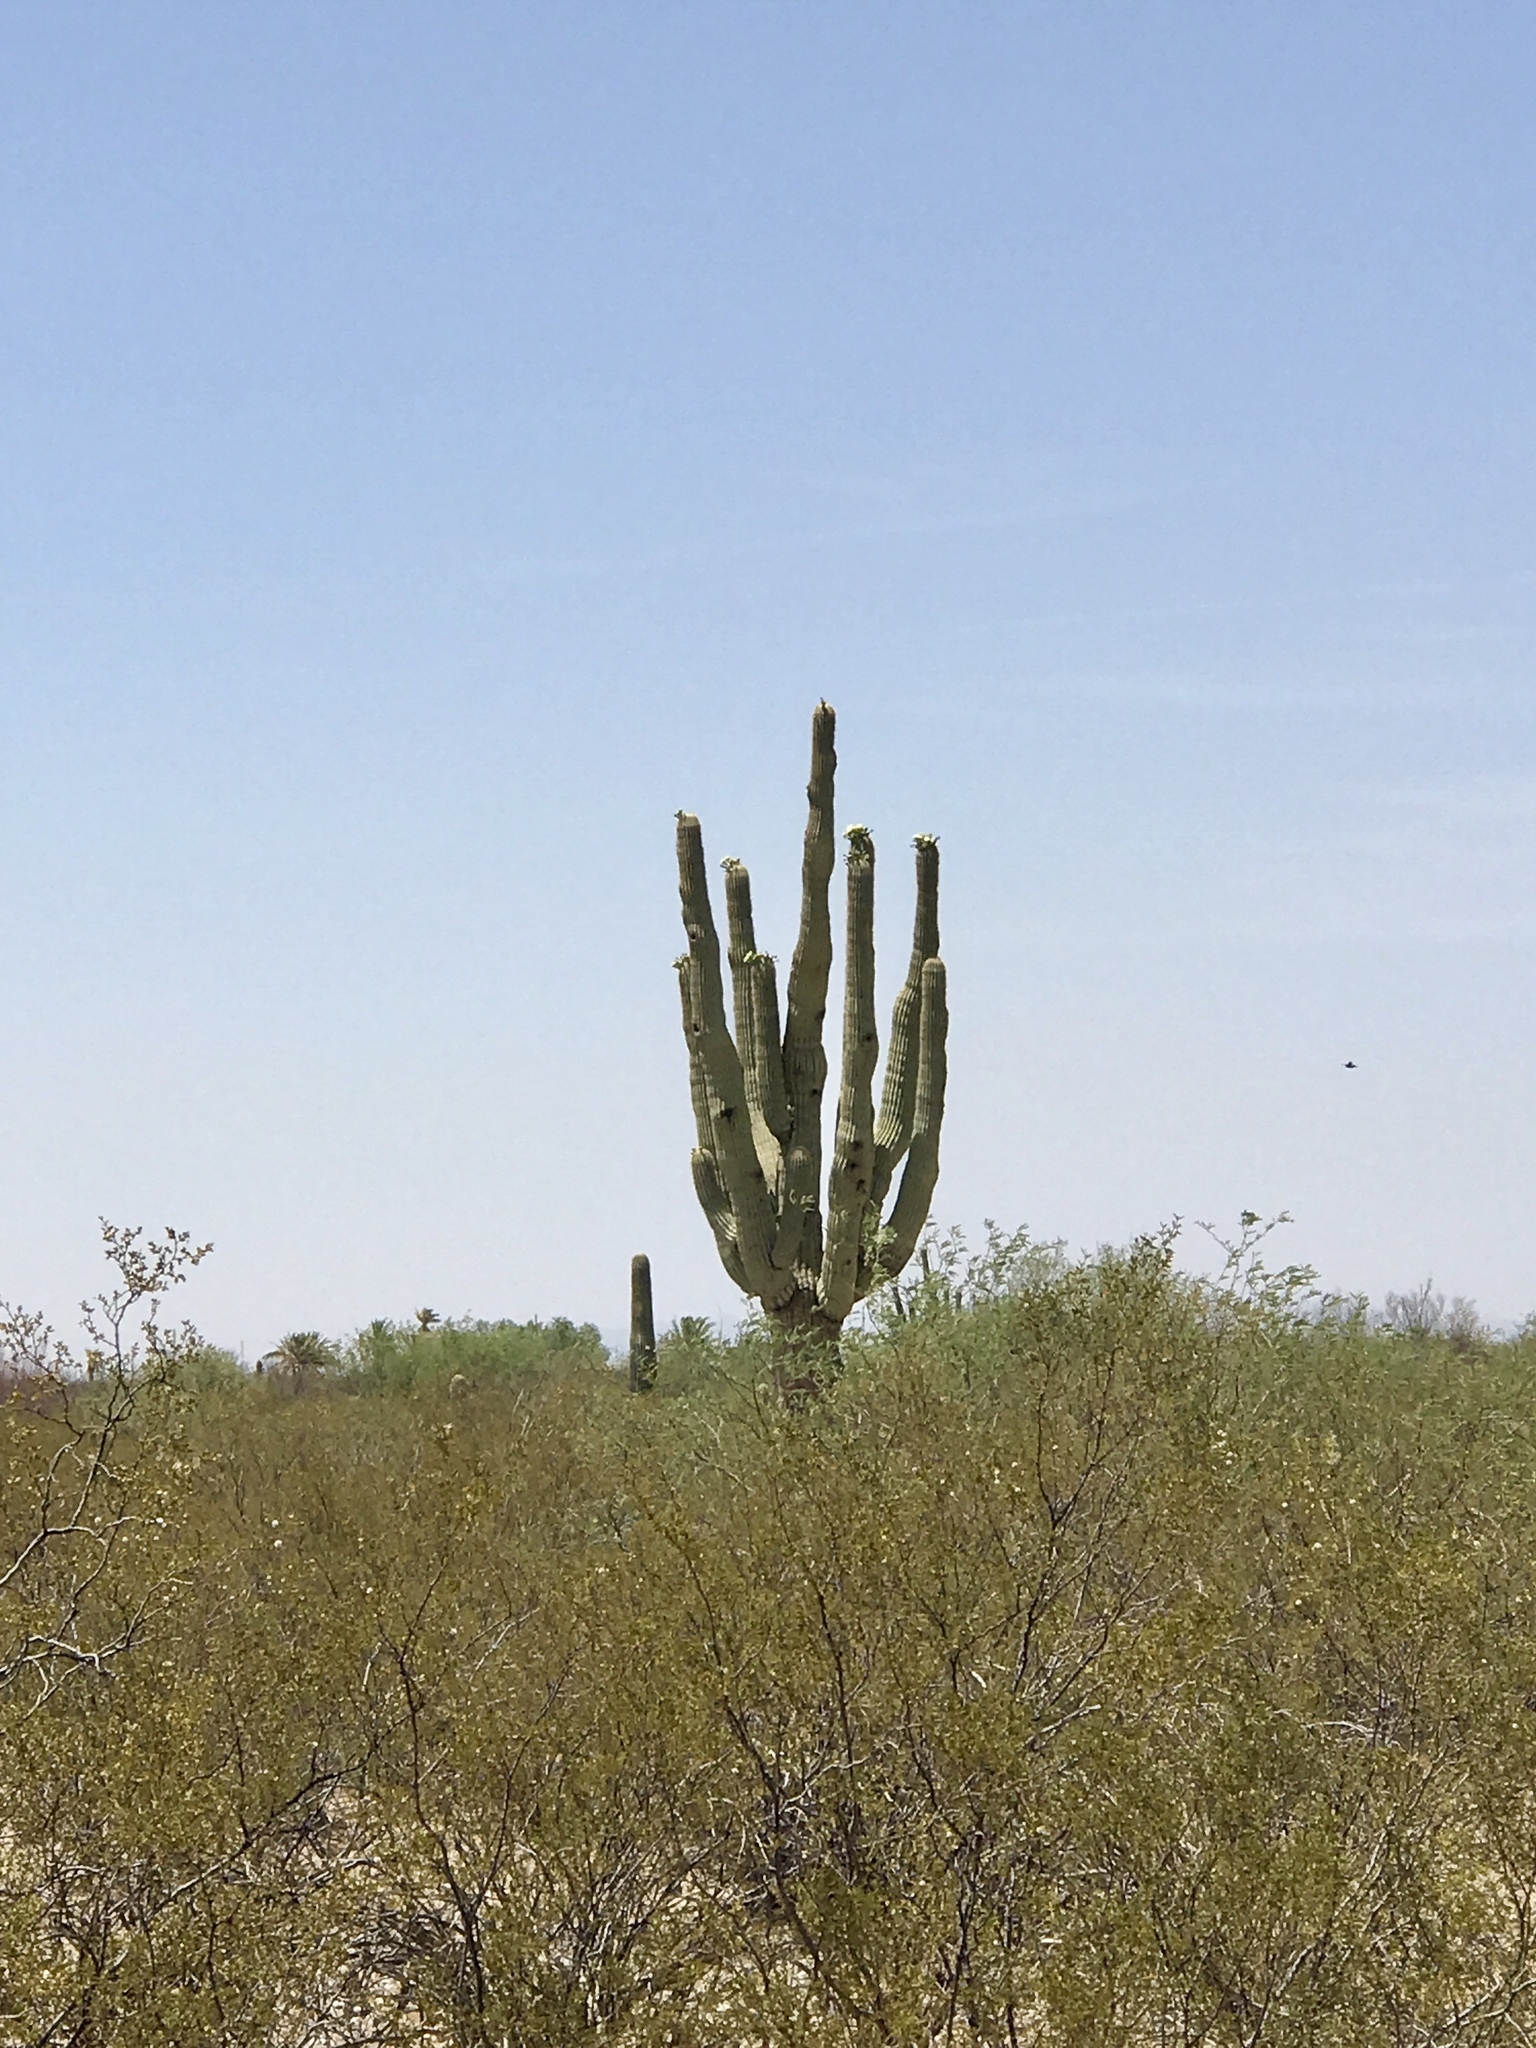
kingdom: Plantae
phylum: Tracheophyta
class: Magnoliopsida
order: Caryophyllales
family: Cactaceae
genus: Carnegiea
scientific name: Carnegiea gigantea
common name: Saguaro
